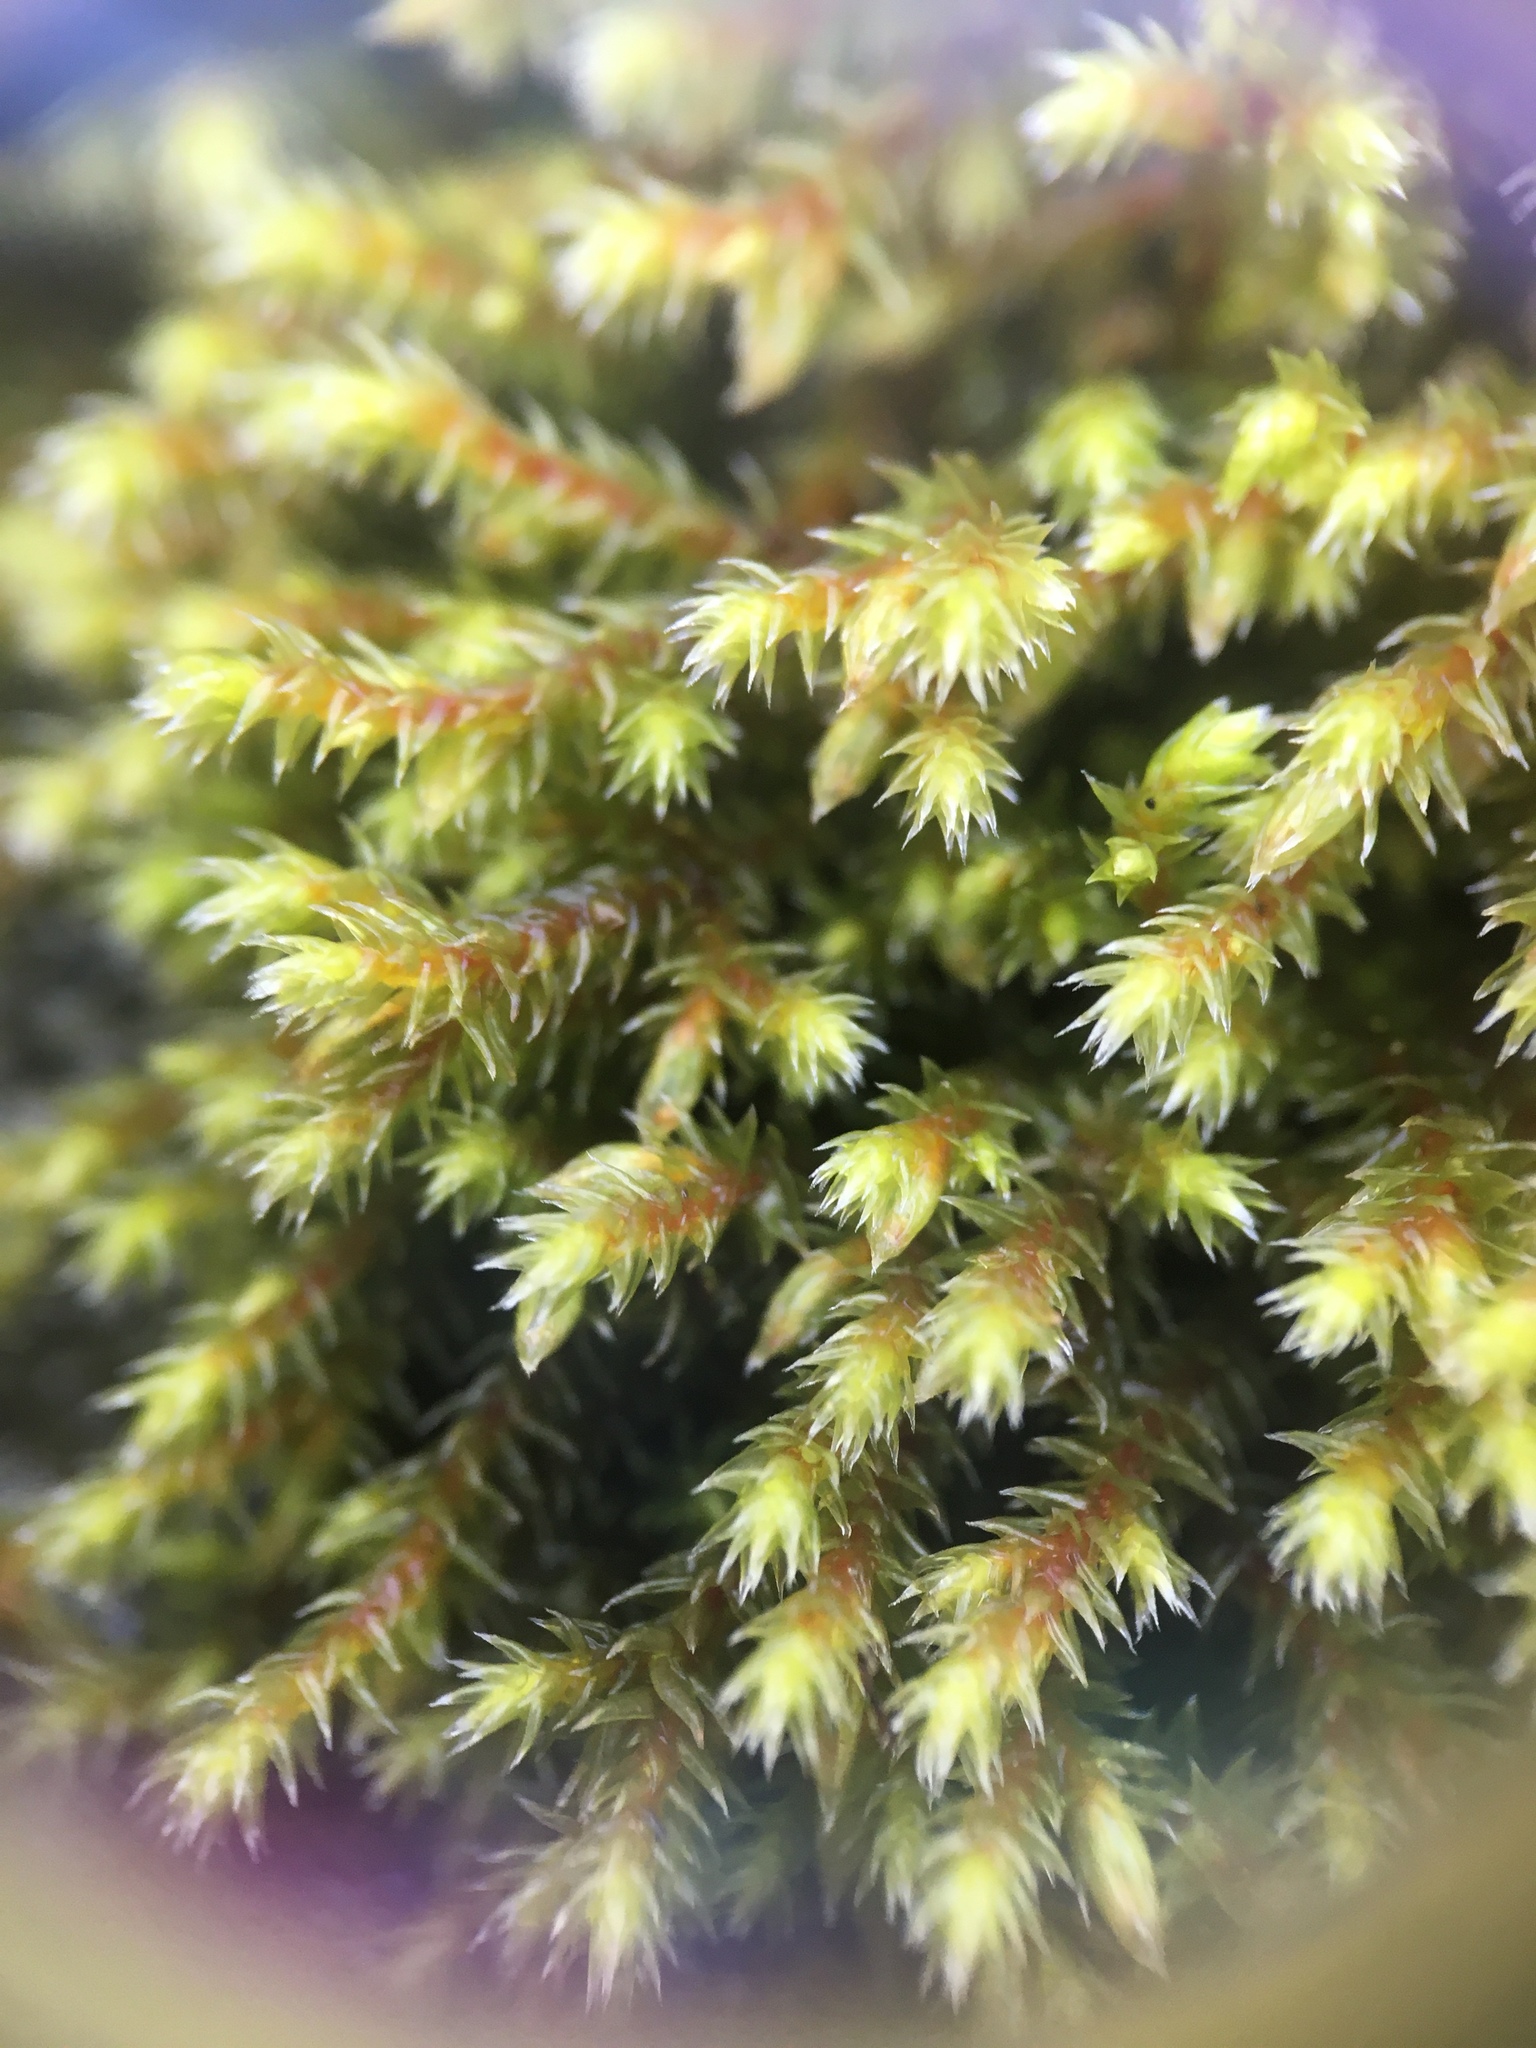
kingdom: Plantae
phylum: Bryophyta
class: Bryopsida
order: Hedwigiales
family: Hedwigiaceae
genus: Hedwigia
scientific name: Hedwigia ciliata
